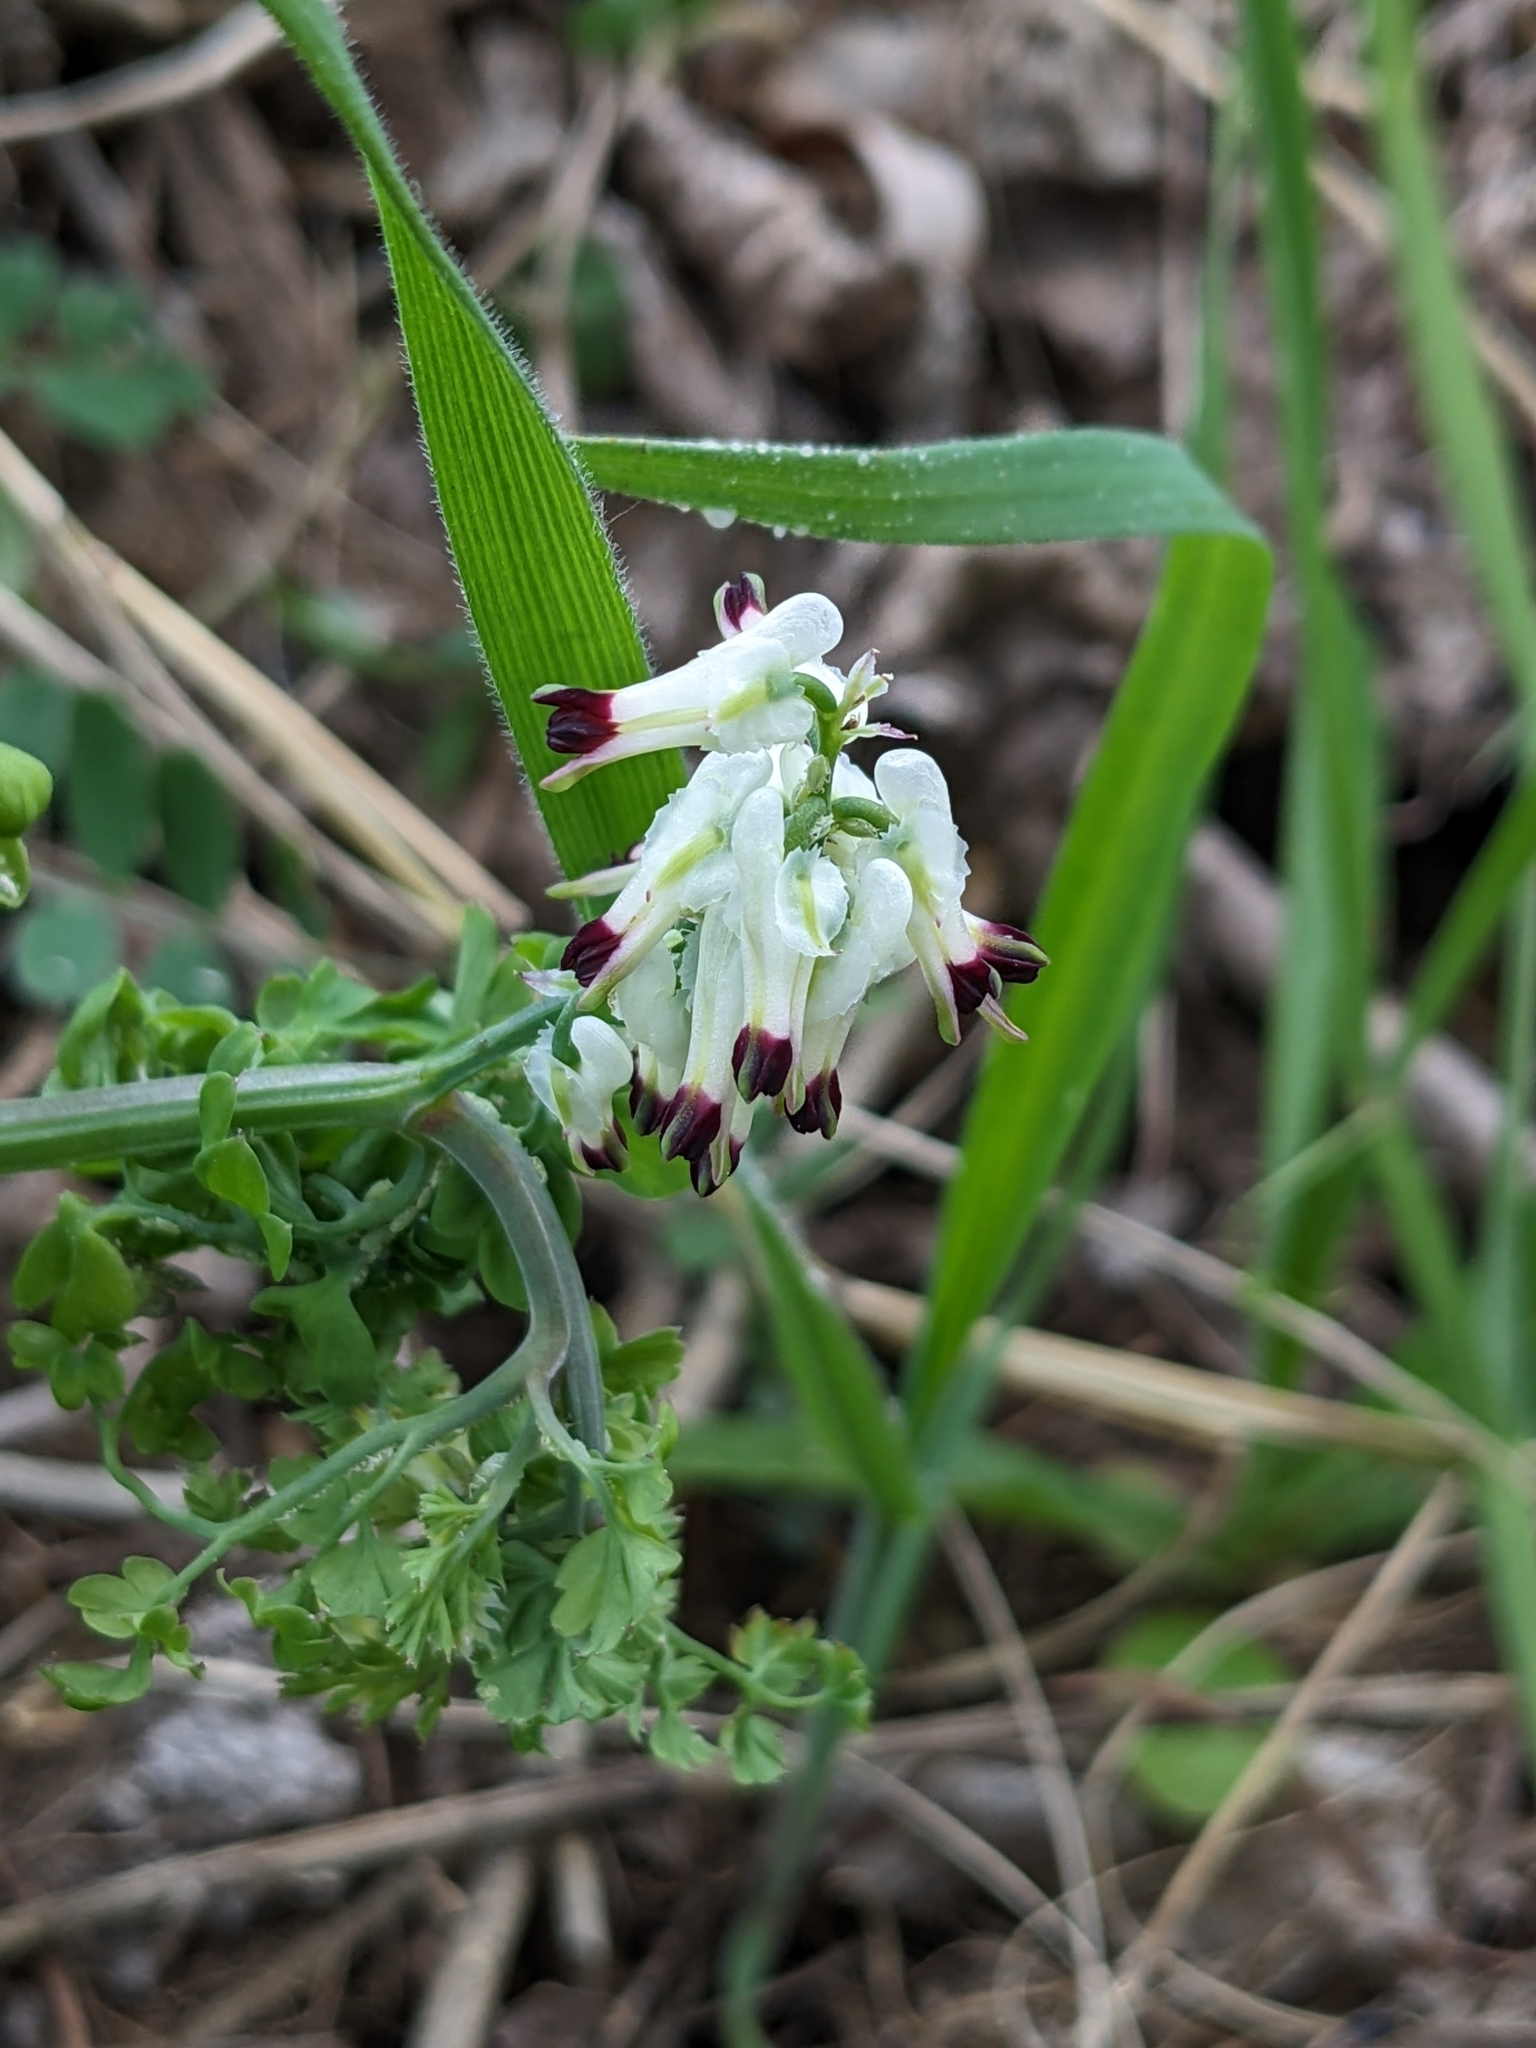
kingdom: Plantae
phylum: Tracheophyta
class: Magnoliopsida
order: Ranunculales
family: Papaveraceae
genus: Fumaria
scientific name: Fumaria capreolata
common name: White ramping-fumitory
